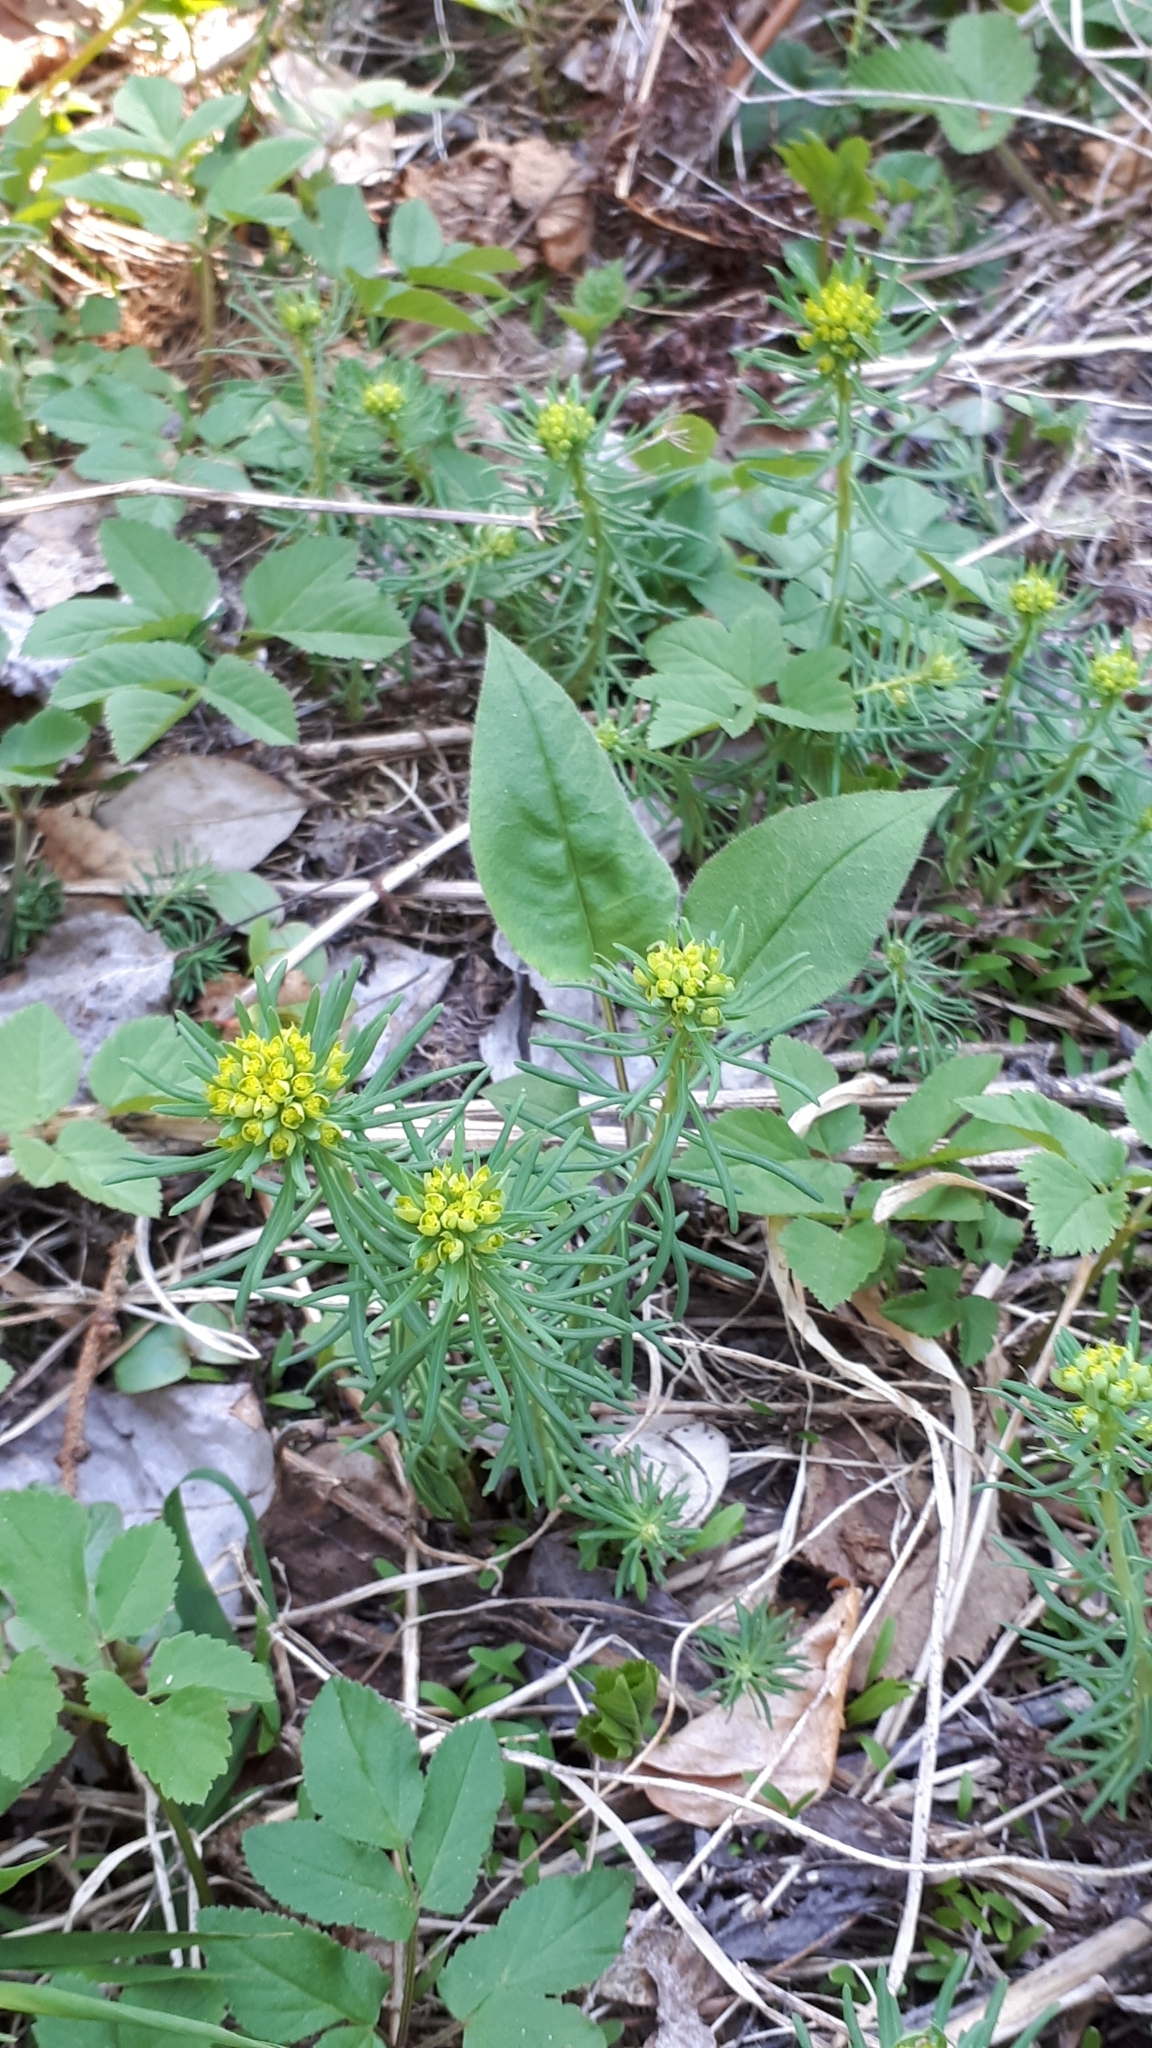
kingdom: Plantae
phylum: Tracheophyta
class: Magnoliopsida
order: Malpighiales
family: Euphorbiaceae
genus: Euphorbia
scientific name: Euphorbia cyparissias
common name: Cypress spurge
